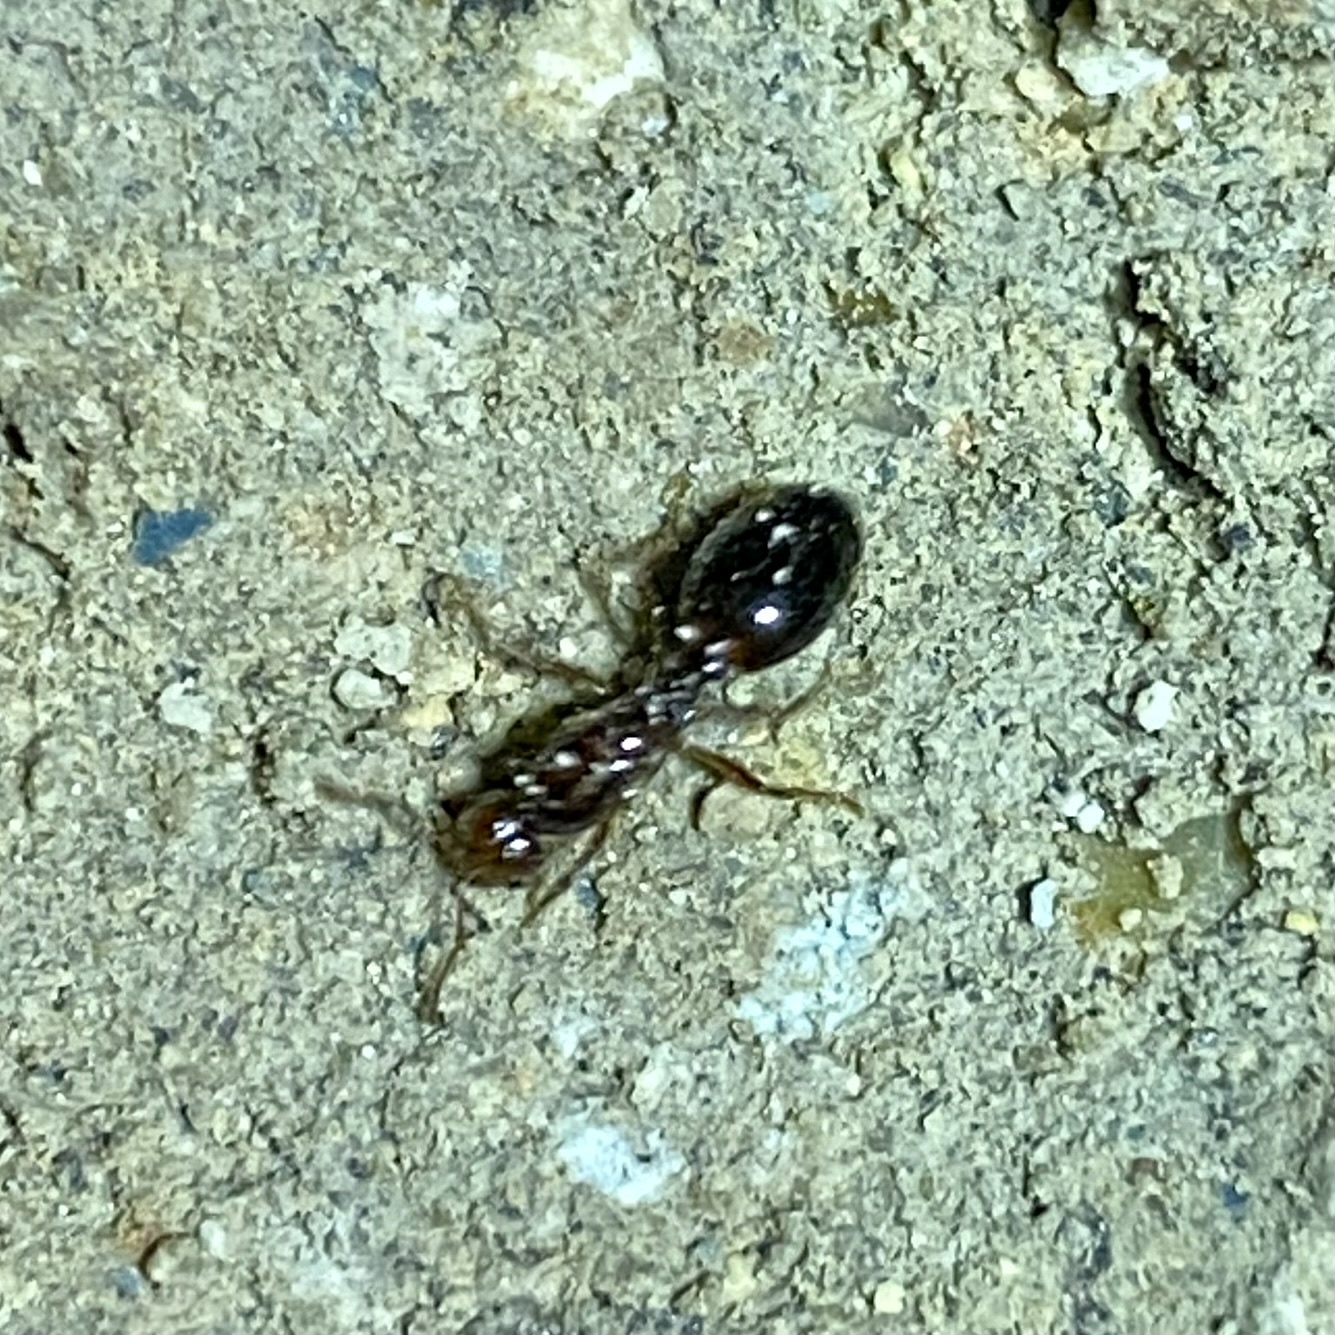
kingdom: Animalia
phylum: Arthropoda
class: Insecta
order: Hymenoptera
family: Formicidae
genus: Solenopsis
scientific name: Solenopsis invicta
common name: Red imported fire ant
